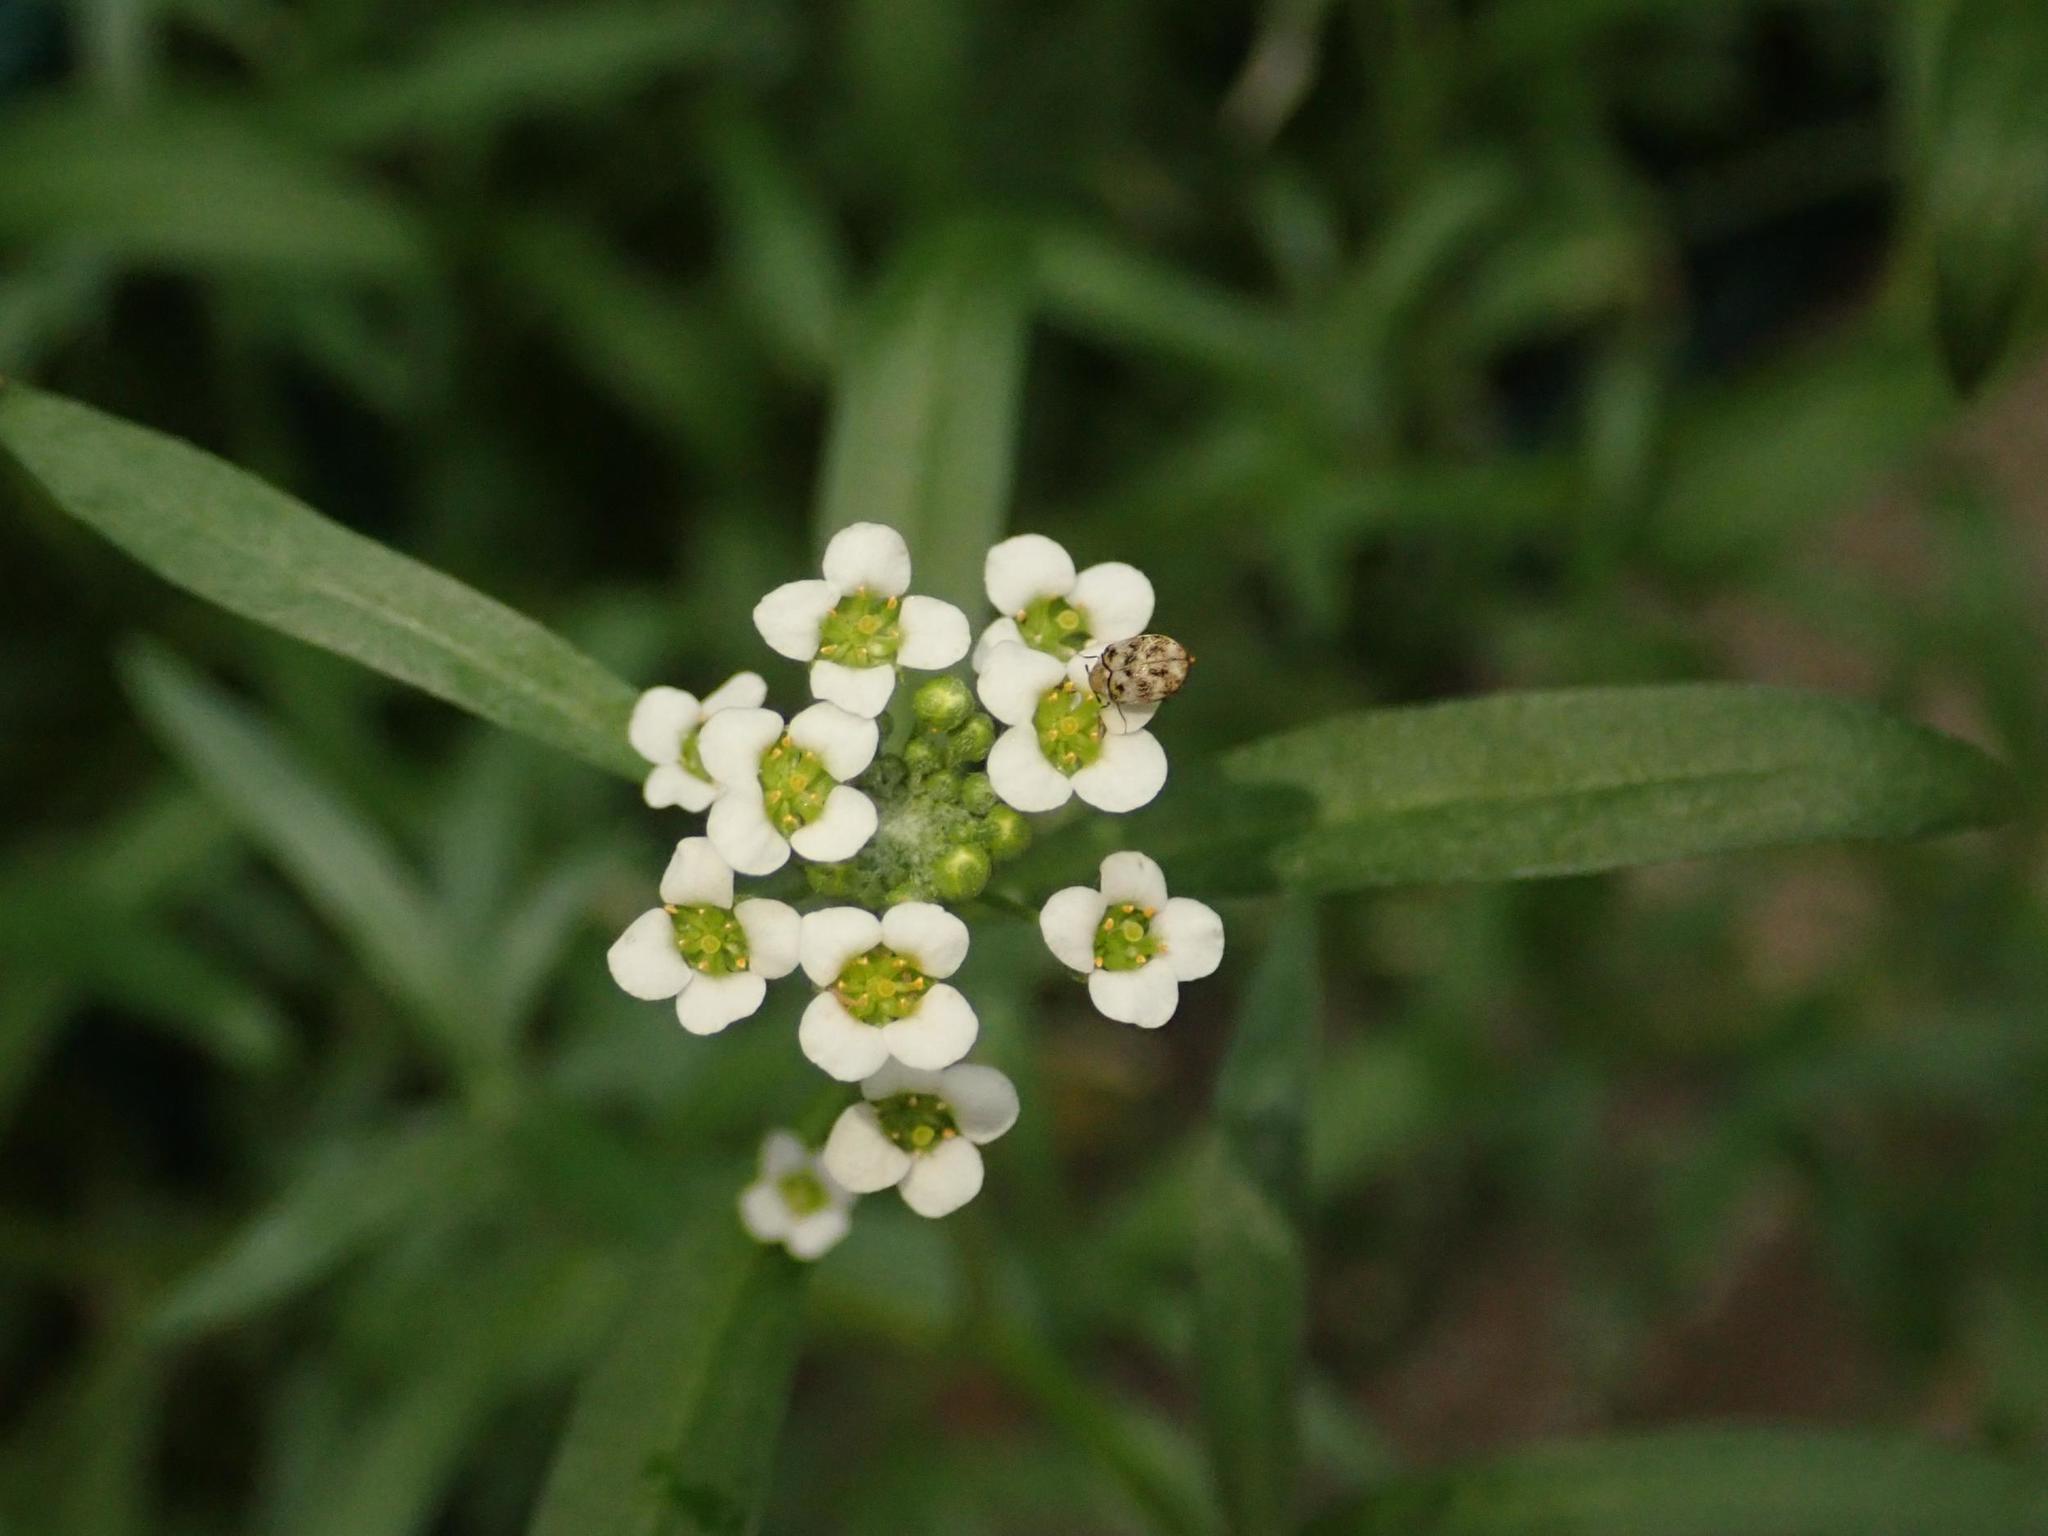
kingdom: Plantae
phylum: Tracheophyta
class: Magnoliopsida
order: Brassicales
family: Brassicaceae
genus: Lobularia
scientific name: Lobularia maritima
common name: Sweet alison
